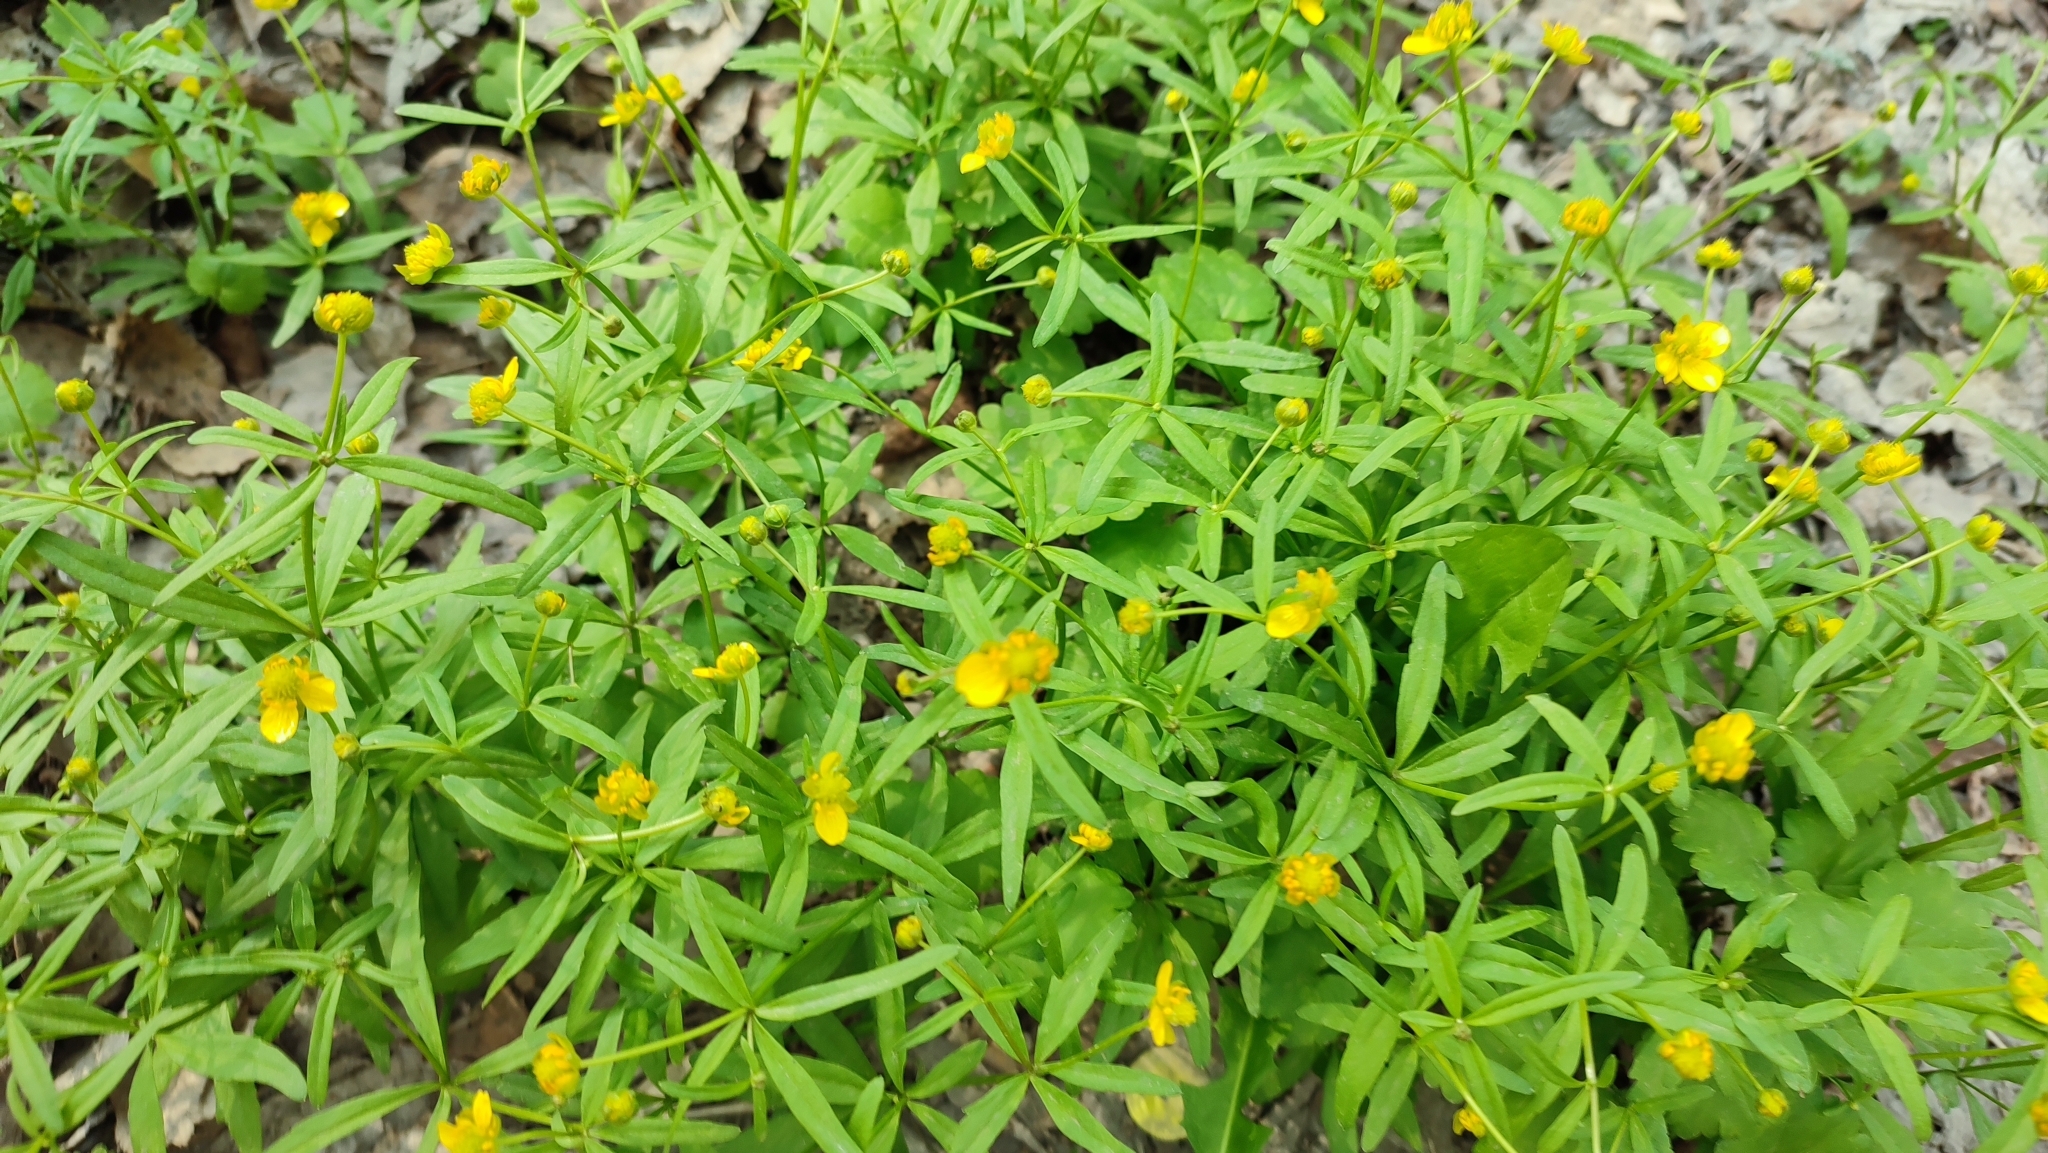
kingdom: Plantae
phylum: Tracheophyta
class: Magnoliopsida
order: Ranunculales
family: Ranunculaceae
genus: Ranunculus
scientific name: Ranunculus monophyllus
